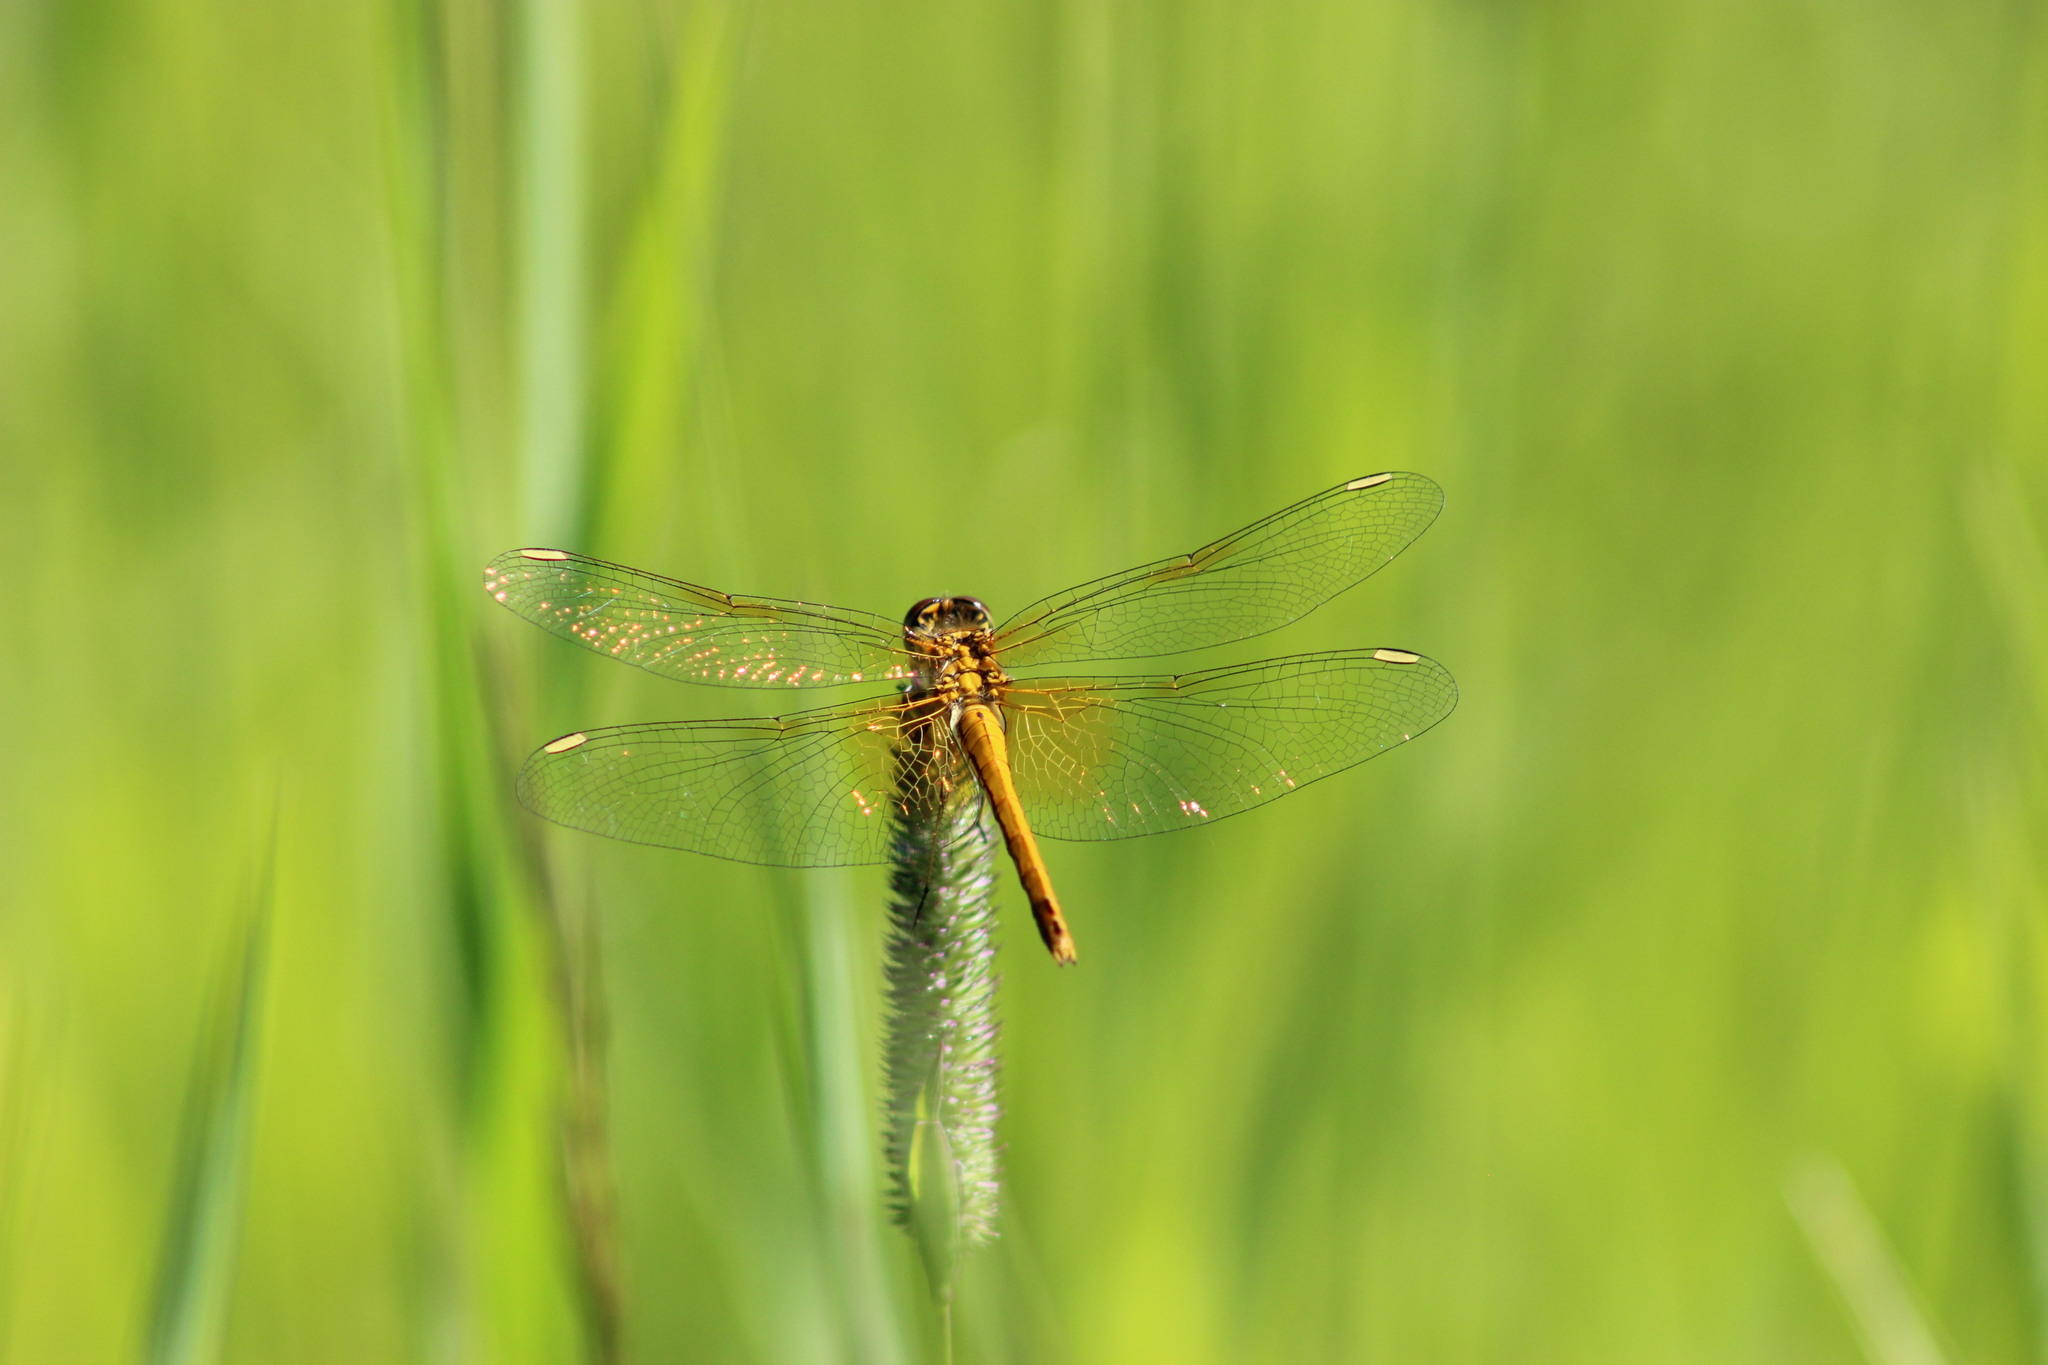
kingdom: Animalia
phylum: Arthropoda
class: Insecta
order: Odonata
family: Libellulidae
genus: Sympetrum
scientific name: Sympetrum flaveolum
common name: Yellow-winged darter
